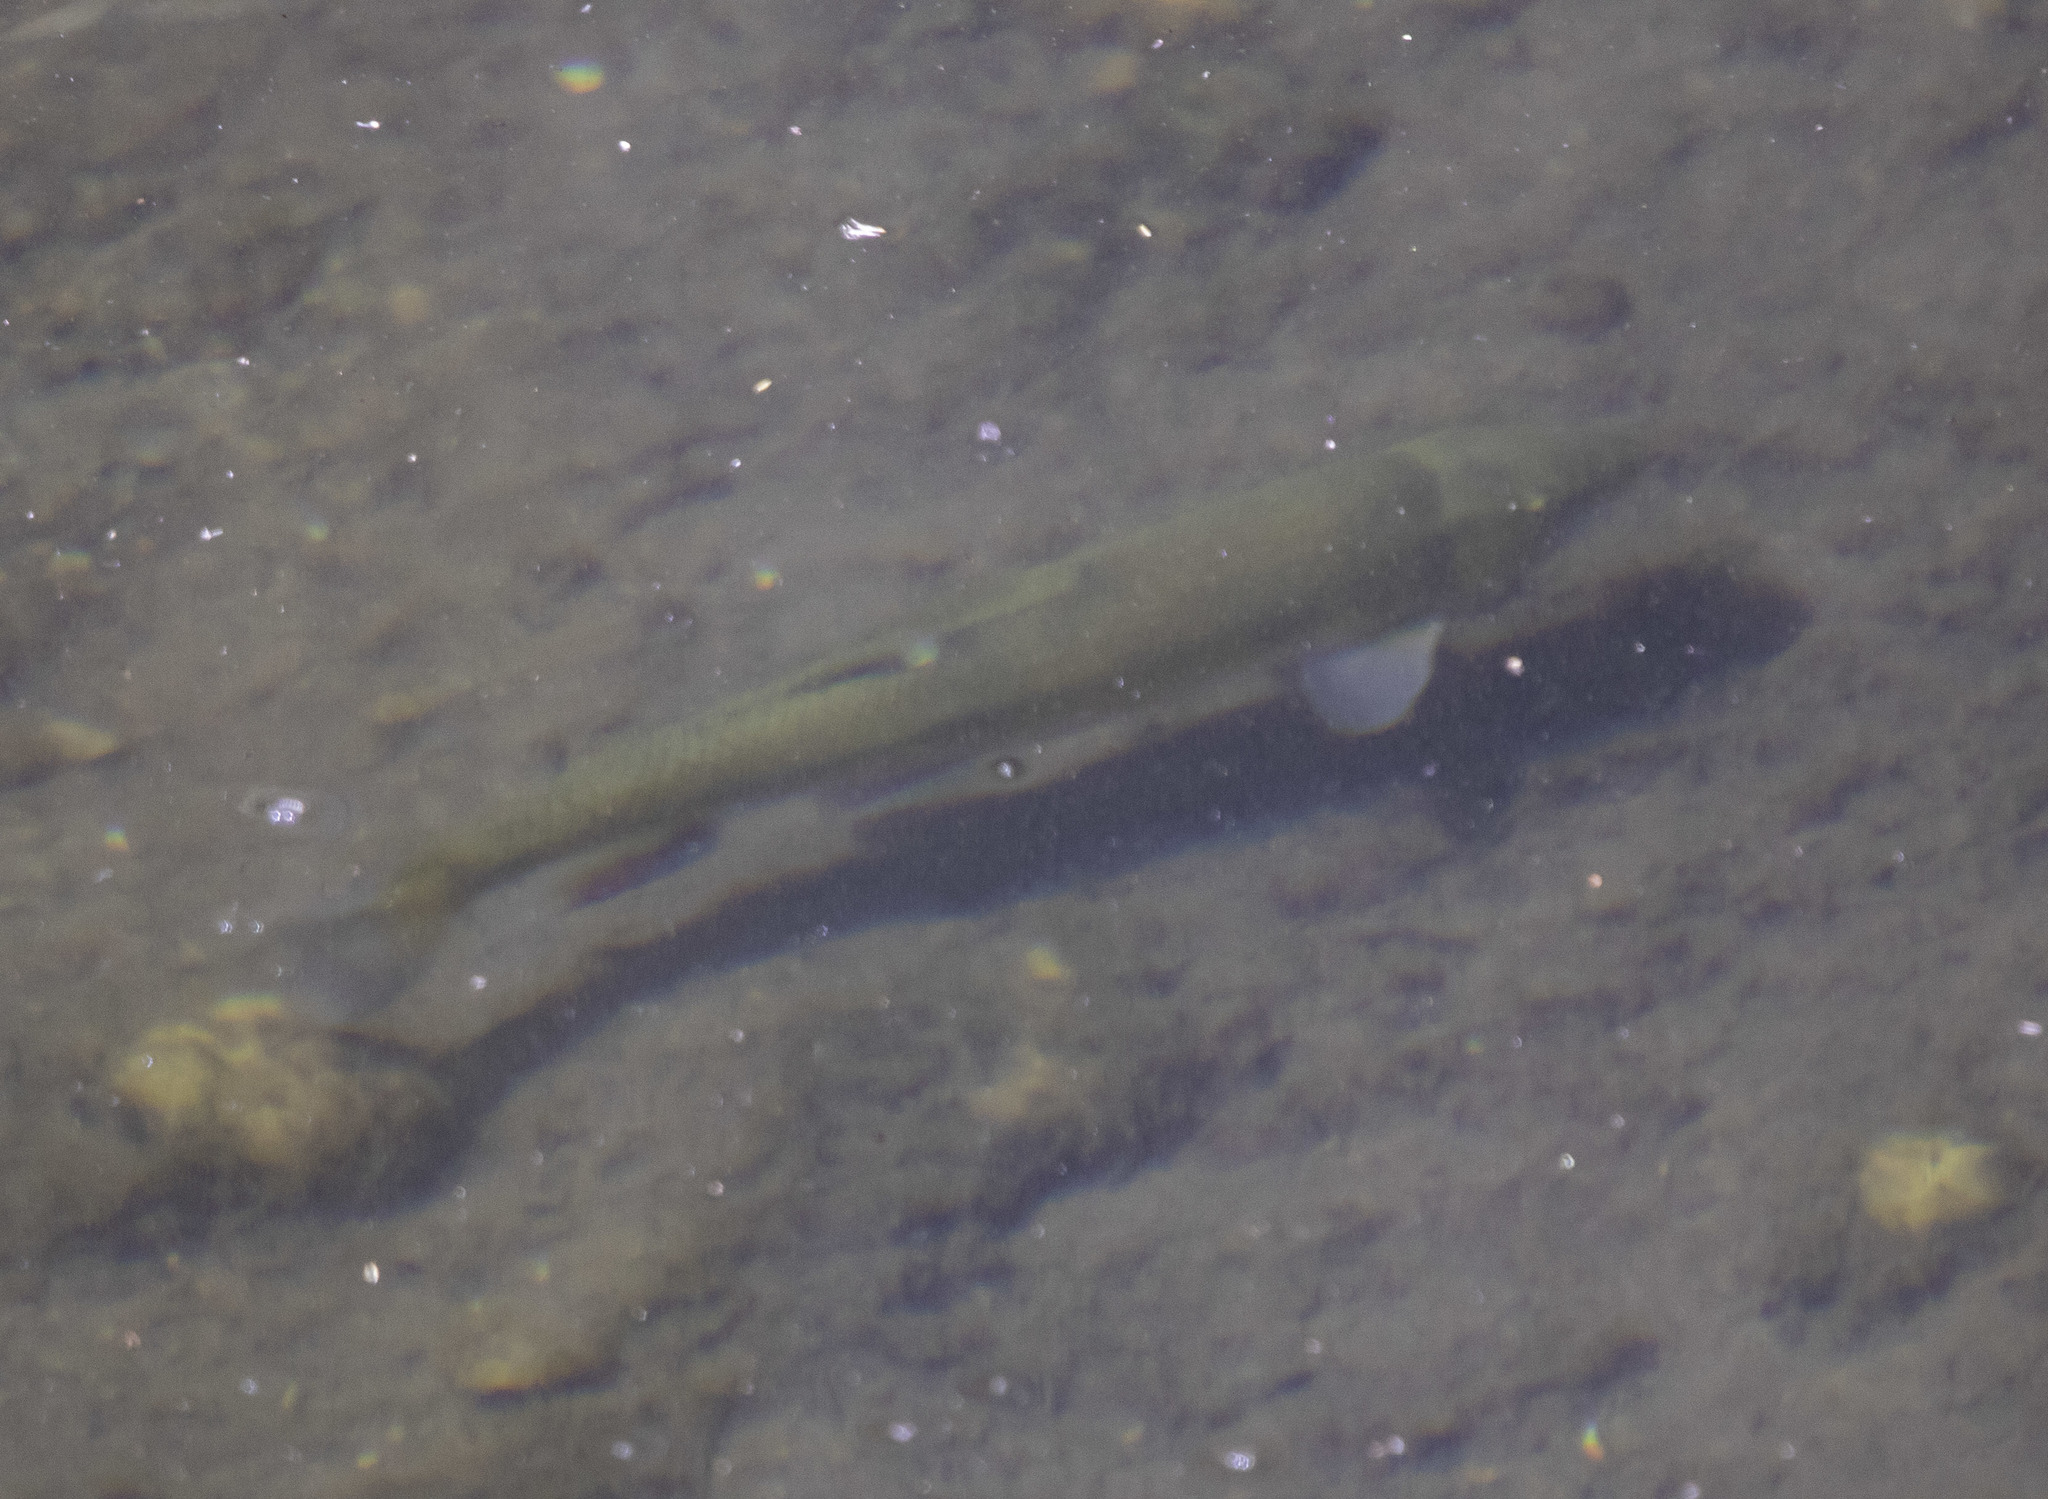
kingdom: Animalia
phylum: Chordata
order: Cypriniformes
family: Catostomidae
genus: Catostomus
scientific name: Catostomus occidentalis
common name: Goose lake sucker
